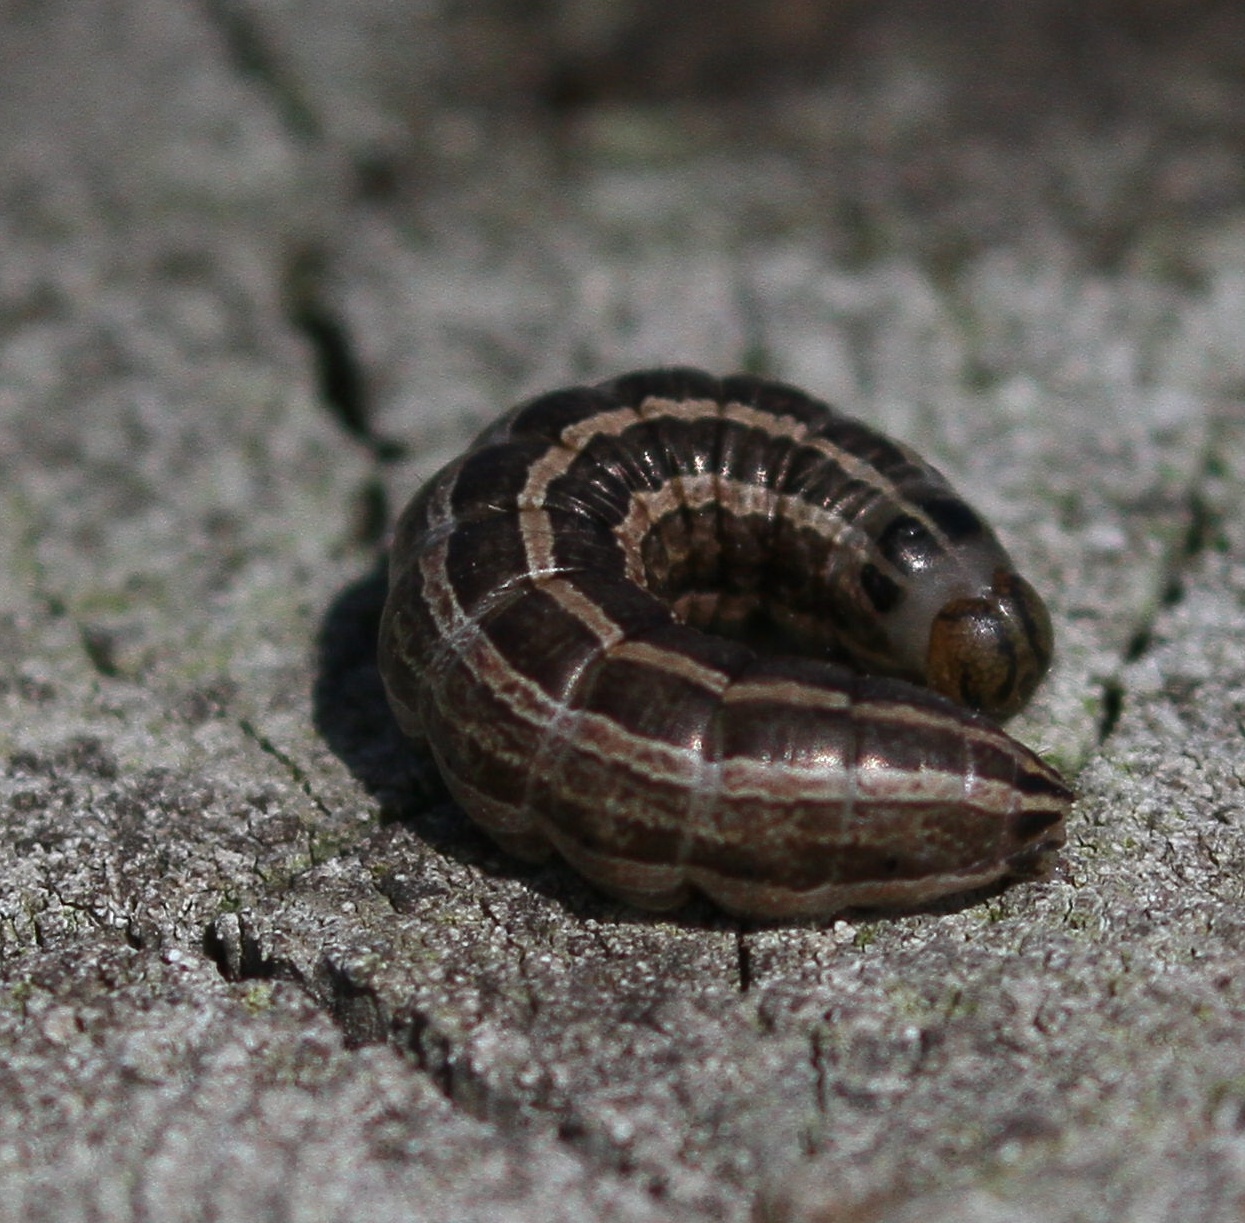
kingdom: Animalia
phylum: Arthropoda
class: Insecta
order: Lepidoptera
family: Noctuidae
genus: Tholera
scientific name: Tholera decimalis
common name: Feathered gothic
